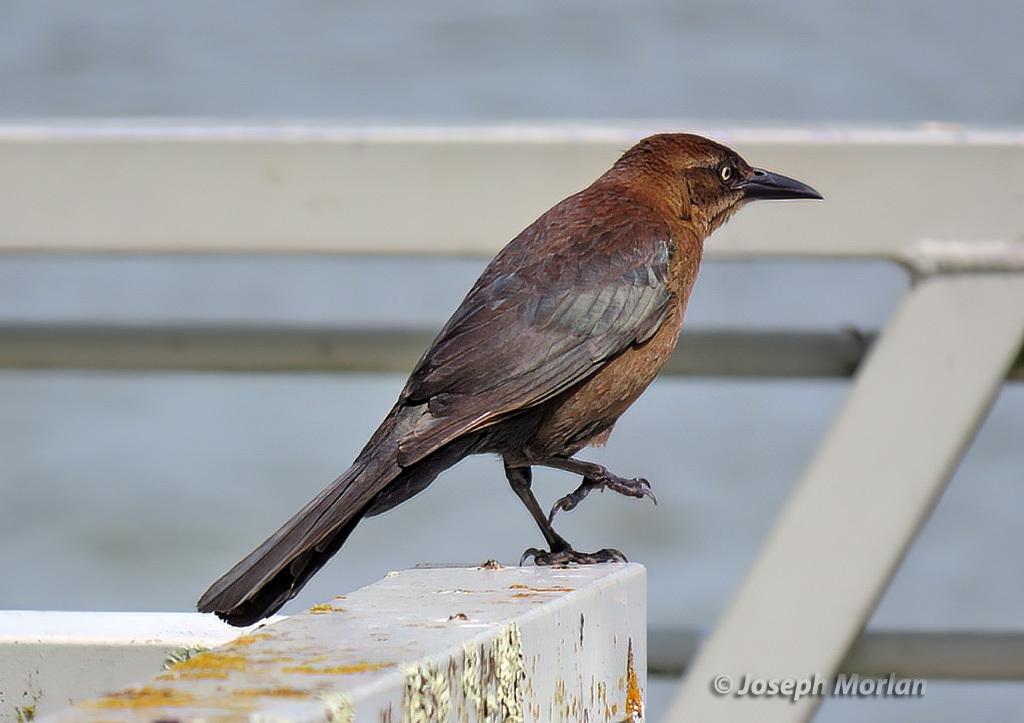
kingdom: Animalia
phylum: Chordata
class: Aves
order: Passeriformes
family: Icteridae
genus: Quiscalus
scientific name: Quiscalus mexicanus
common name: Great-tailed grackle
